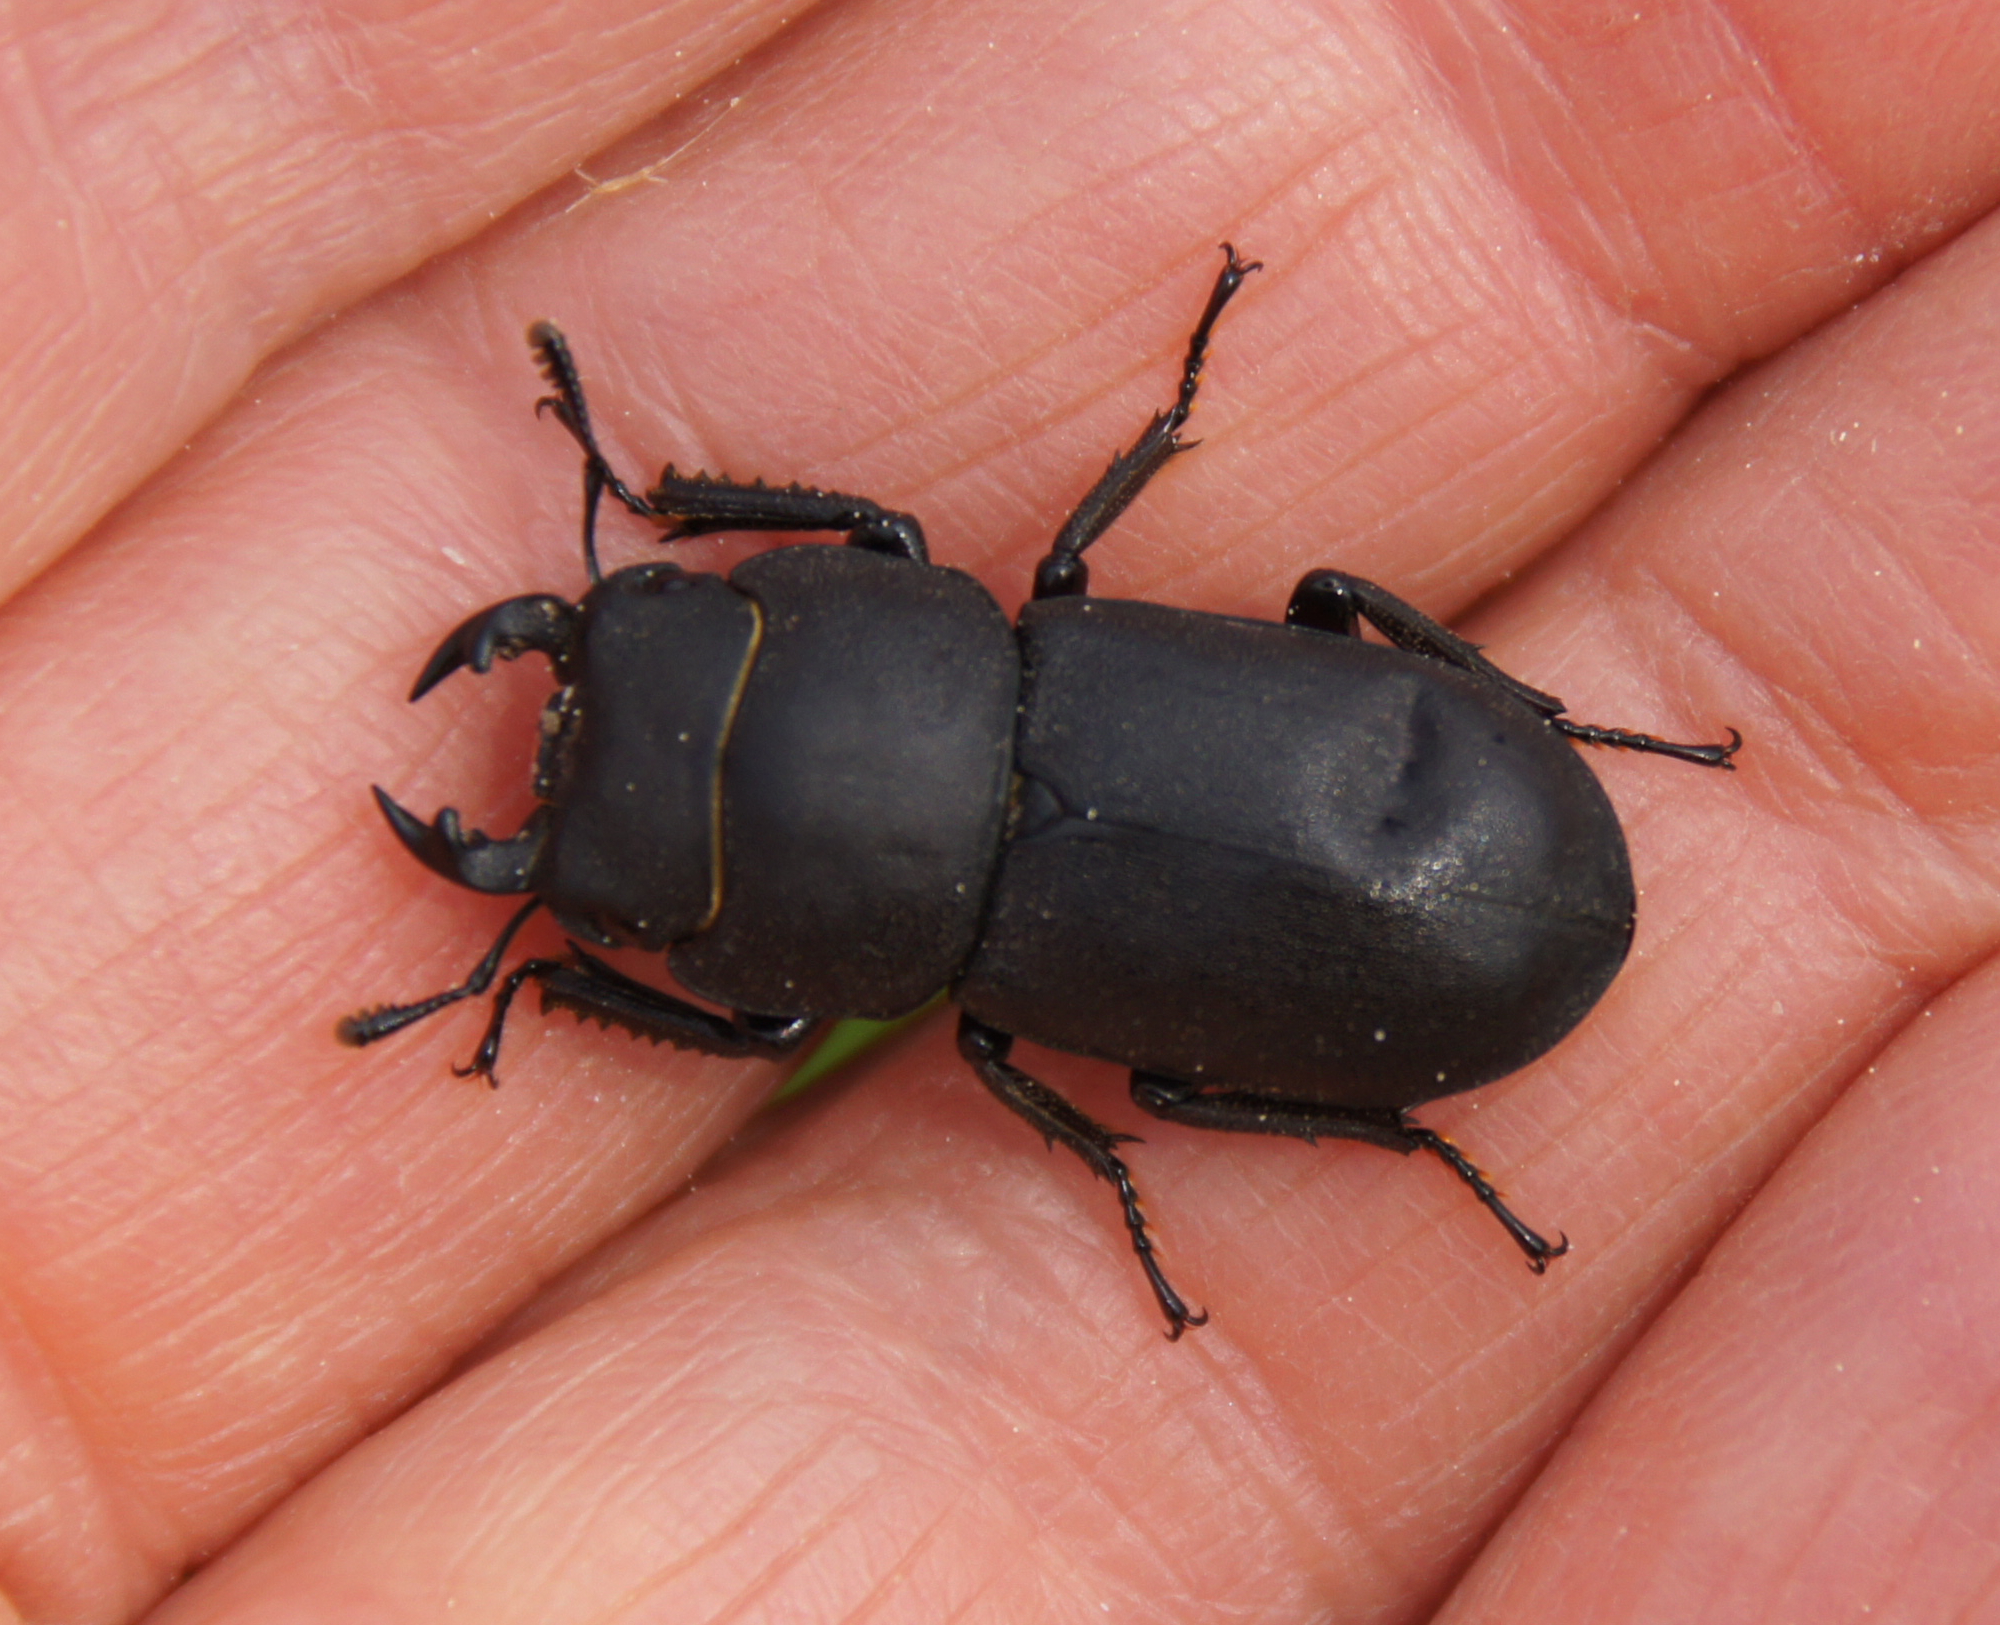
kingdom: Animalia
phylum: Arthropoda
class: Insecta
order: Coleoptera
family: Lucanidae
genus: Dorcus
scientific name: Dorcus parallelipipedus
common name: Lesser stag beetle
